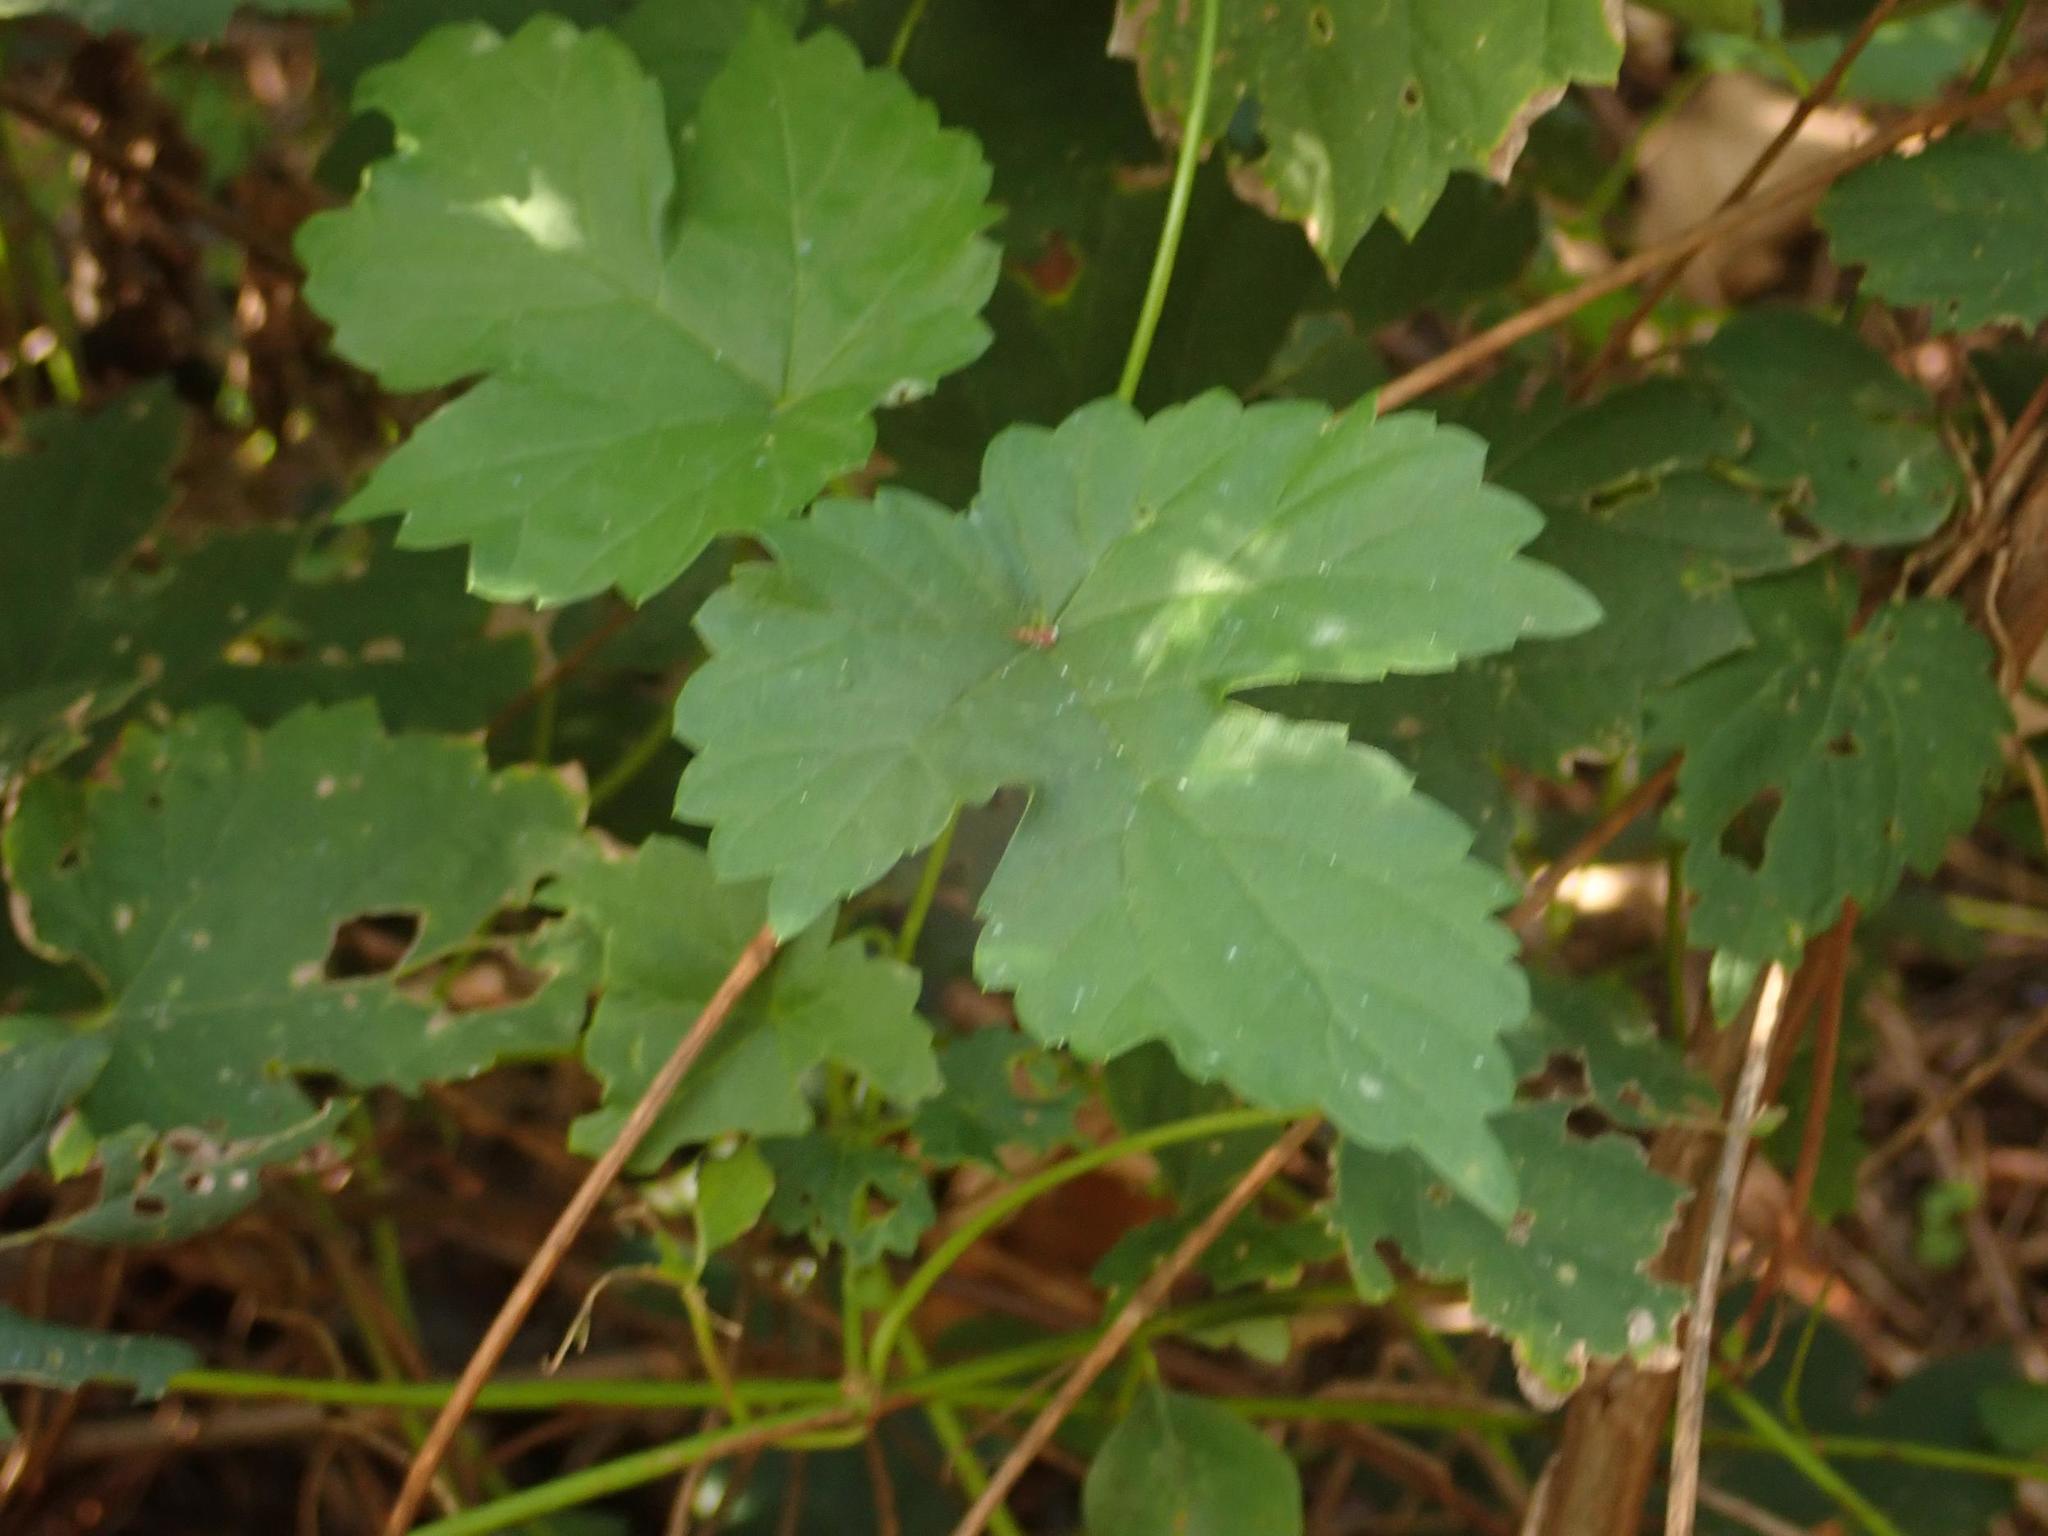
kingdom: Plantae
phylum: Tracheophyta
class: Magnoliopsida
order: Rosales
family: Cannabaceae
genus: Humulus
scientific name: Humulus lupulus
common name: Hop
